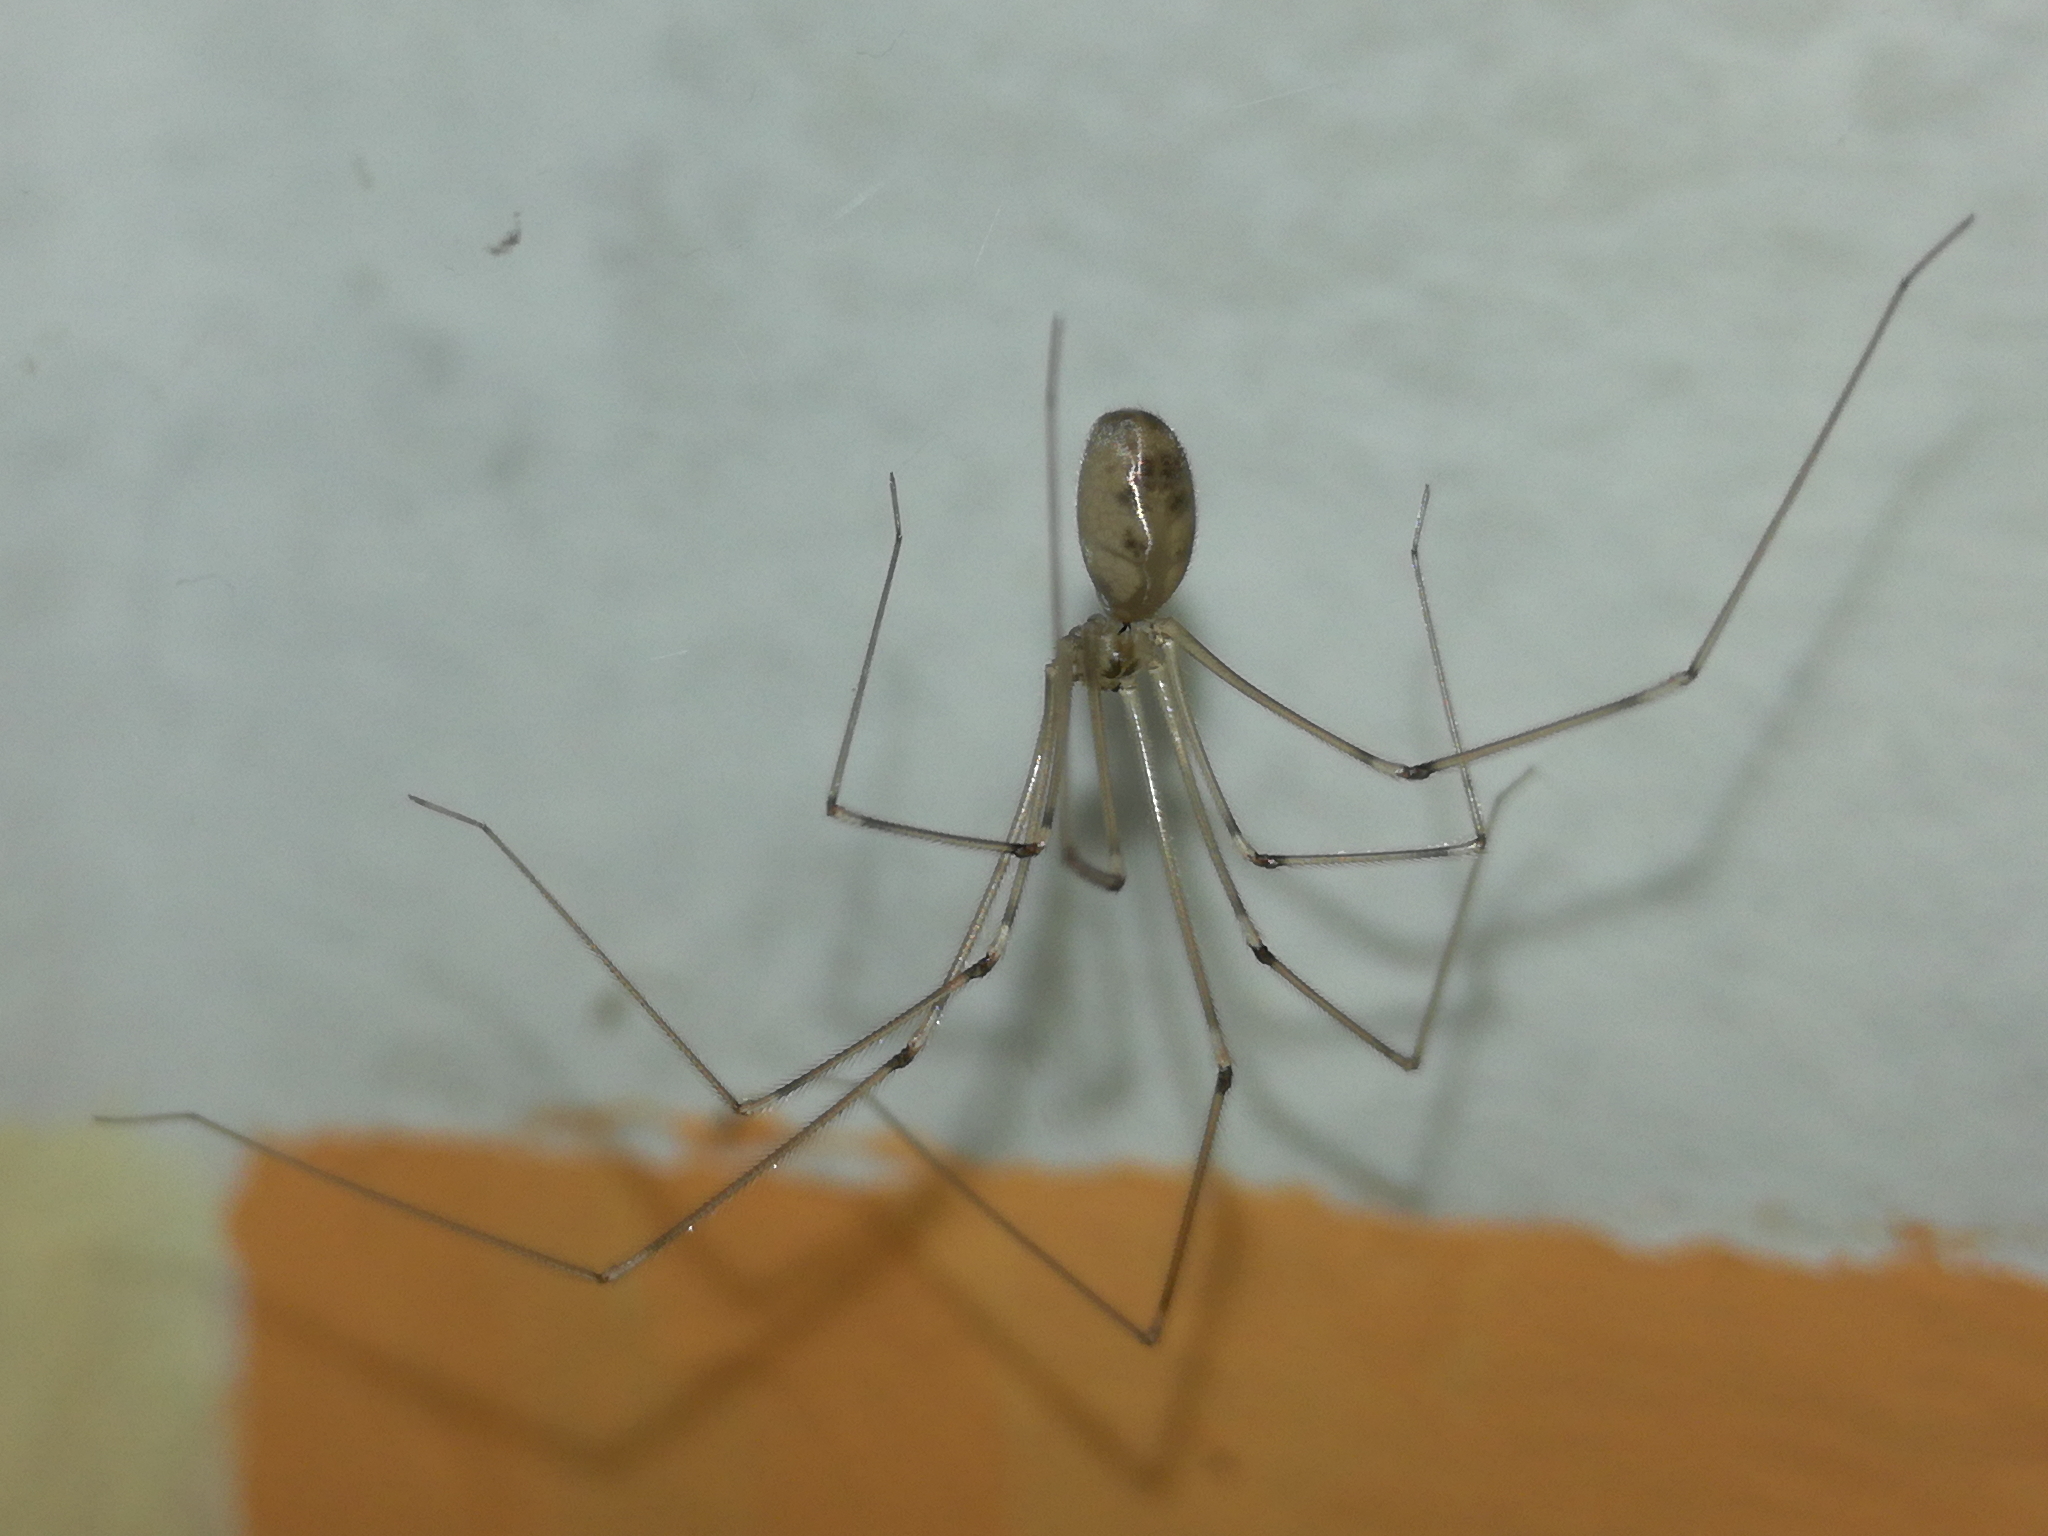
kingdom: Animalia
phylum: Arthropoda
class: Arachnida
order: Araneae
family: Pholcidae
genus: Pholcus
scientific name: Pholcus phalangioides
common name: Longbodied cellar spider
